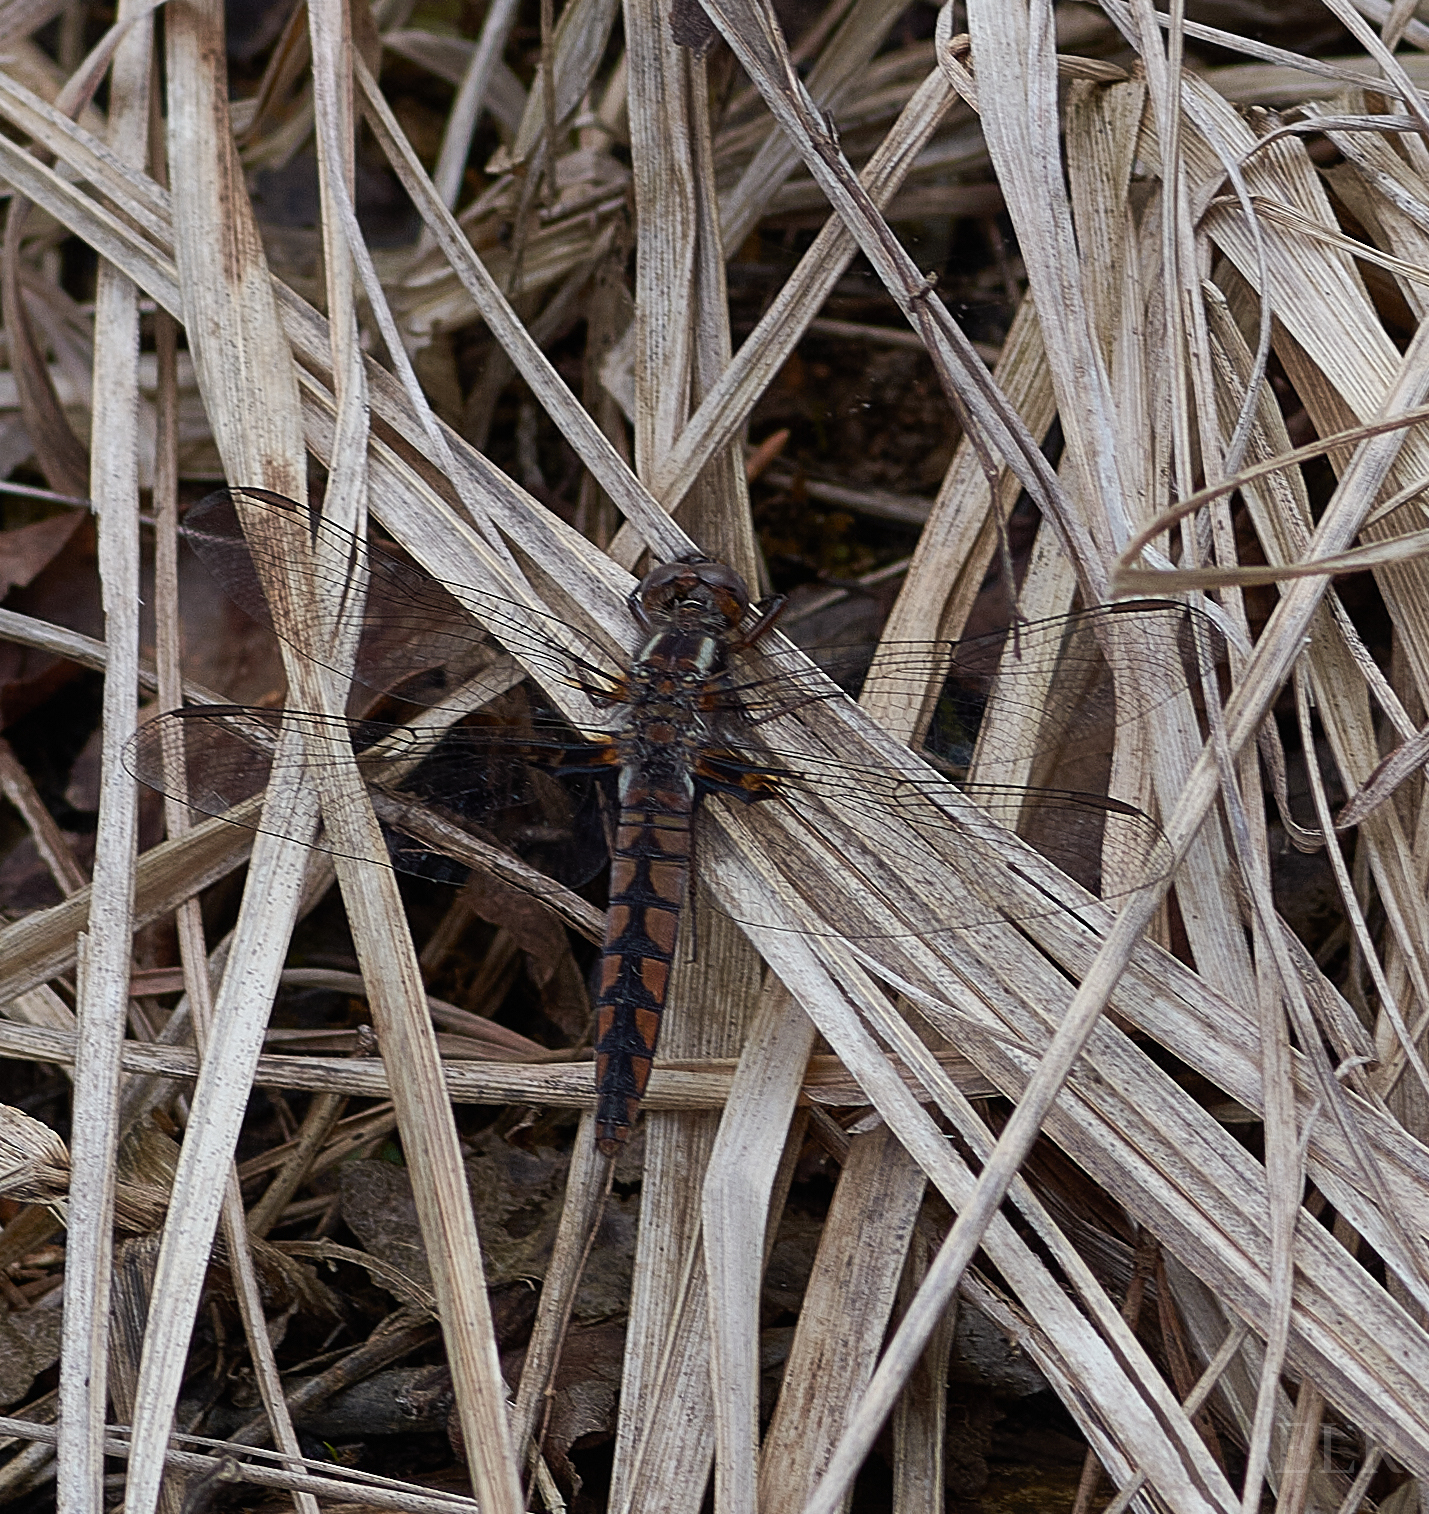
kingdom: Animalia
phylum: Arthropoda
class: Insecta
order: Odonata
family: Libellulidae
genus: Ladona
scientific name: Ladona deplanata
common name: Blue corporal
